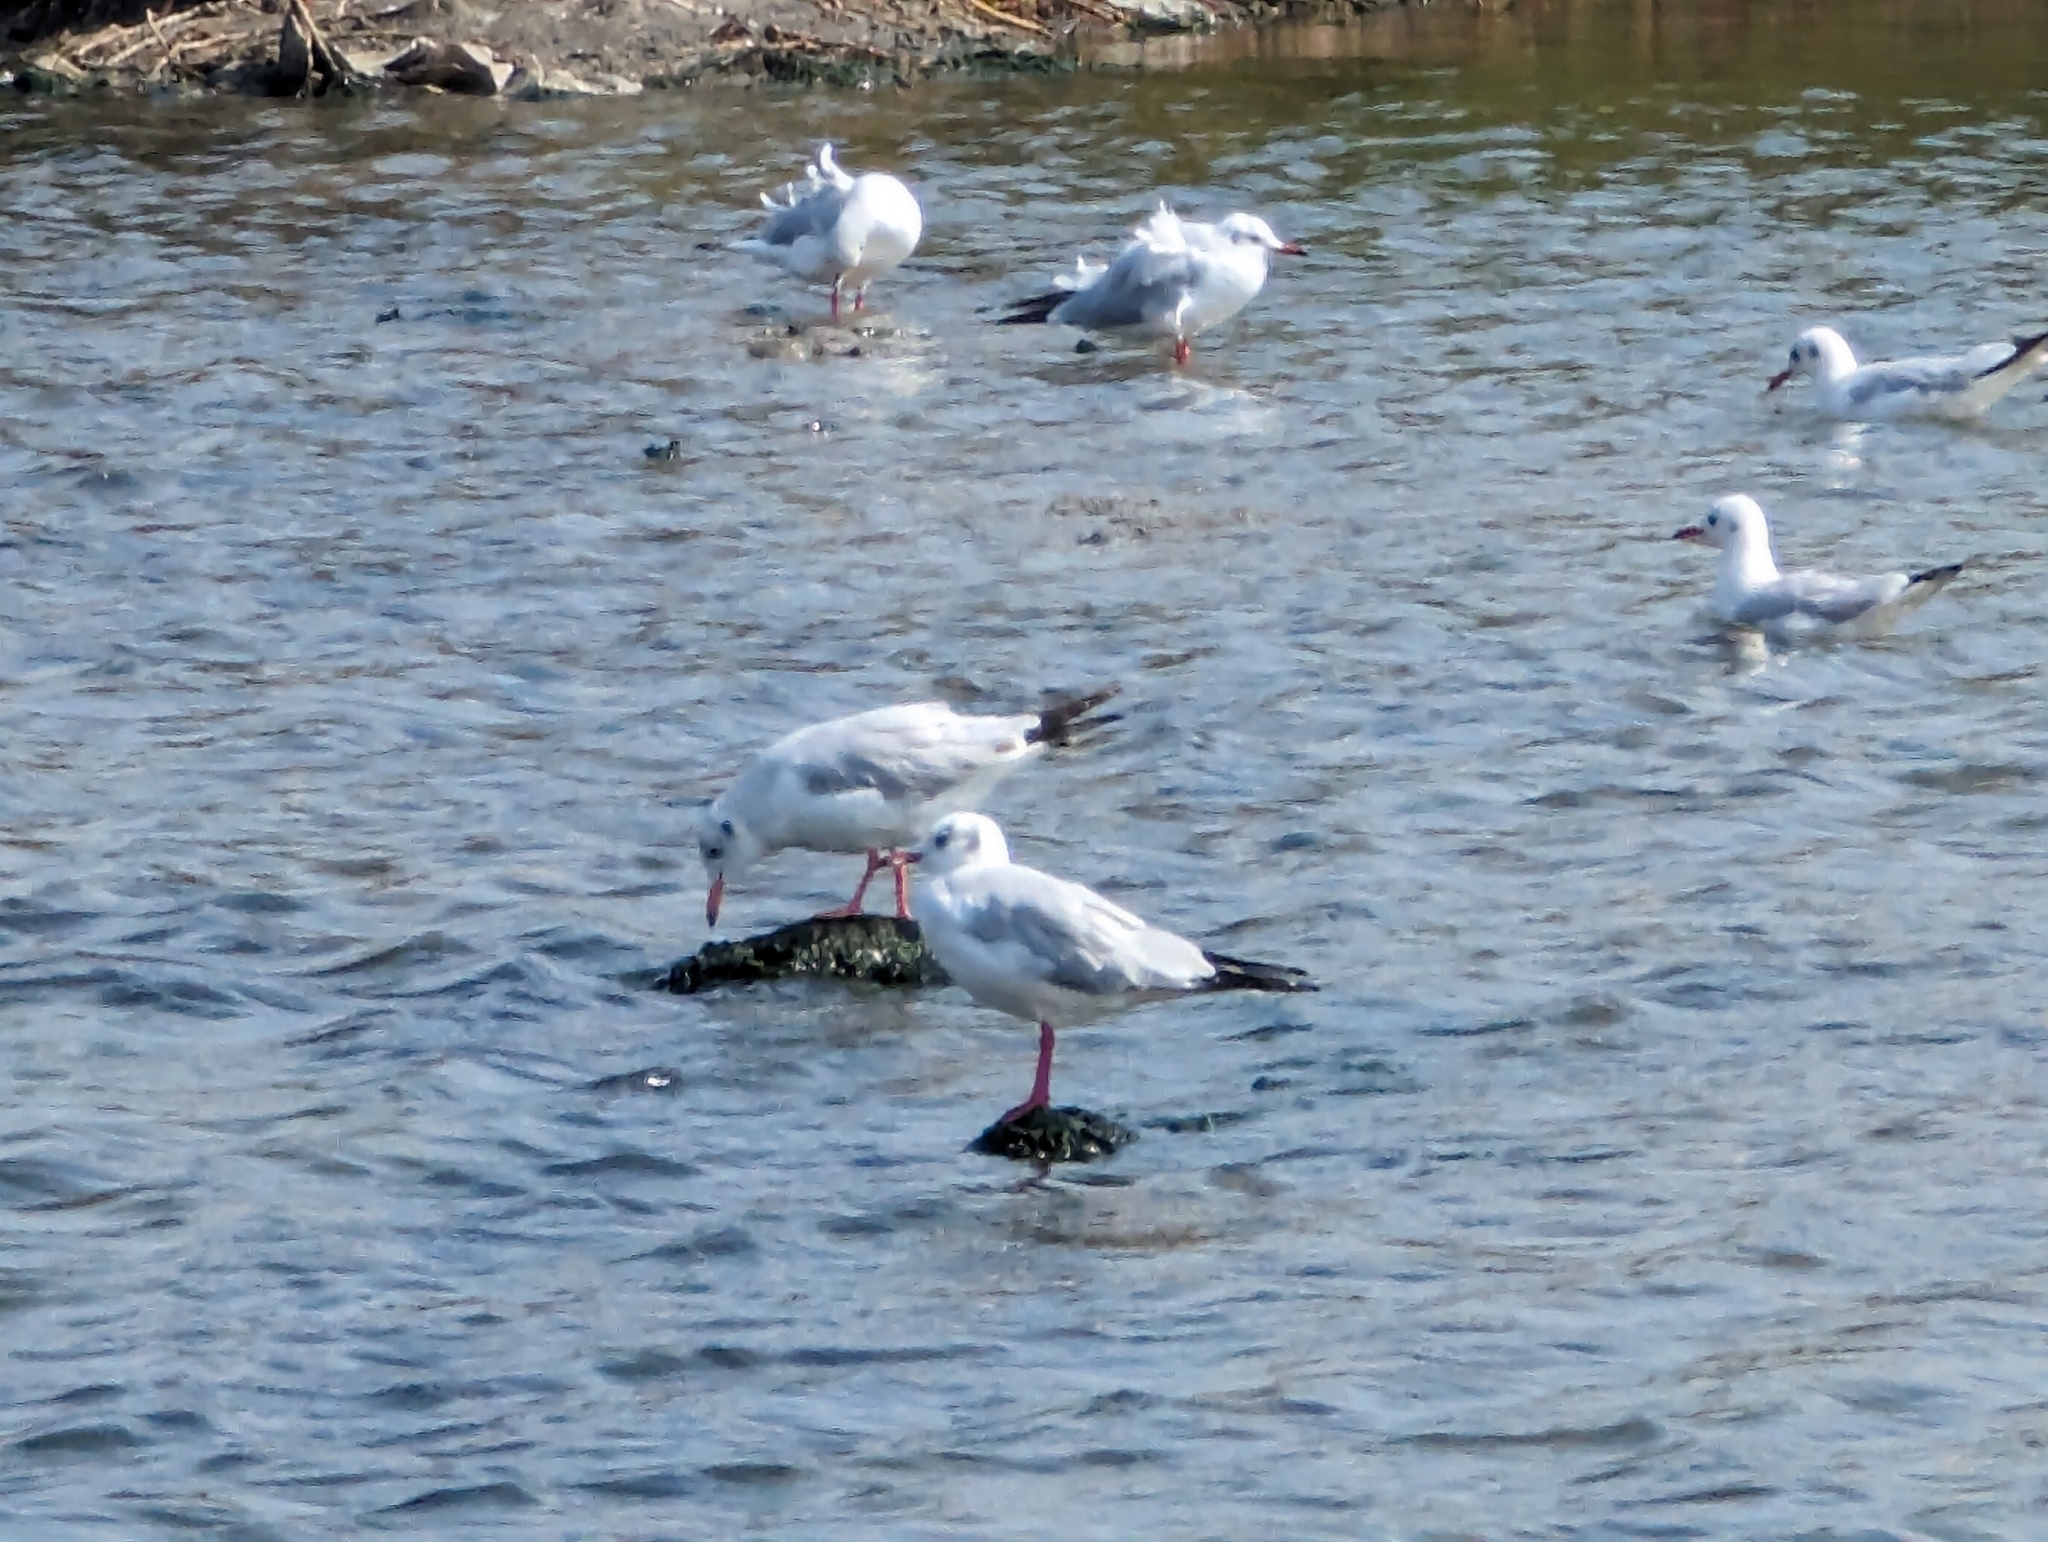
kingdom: Animalia
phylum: Chordata
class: Aves
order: Charadriiformes
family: Laridae
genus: Chroicocephalus
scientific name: Chroicocephalus ridibundus
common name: Black-headed gull
